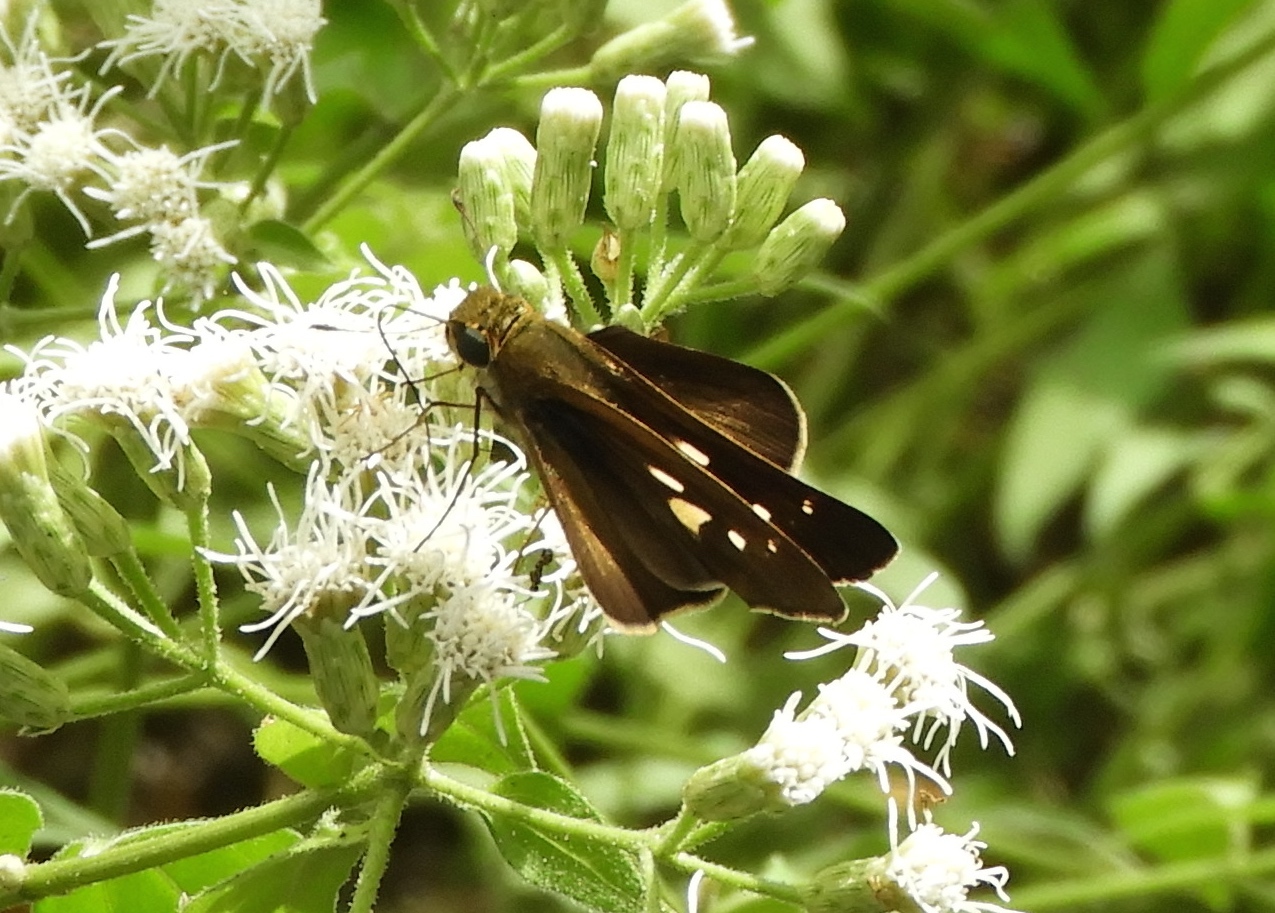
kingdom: Animalia
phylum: Arthropoda
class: Insecta
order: Lepidoptera
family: Hesperiidae
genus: Turesis
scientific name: Turesis lucas
